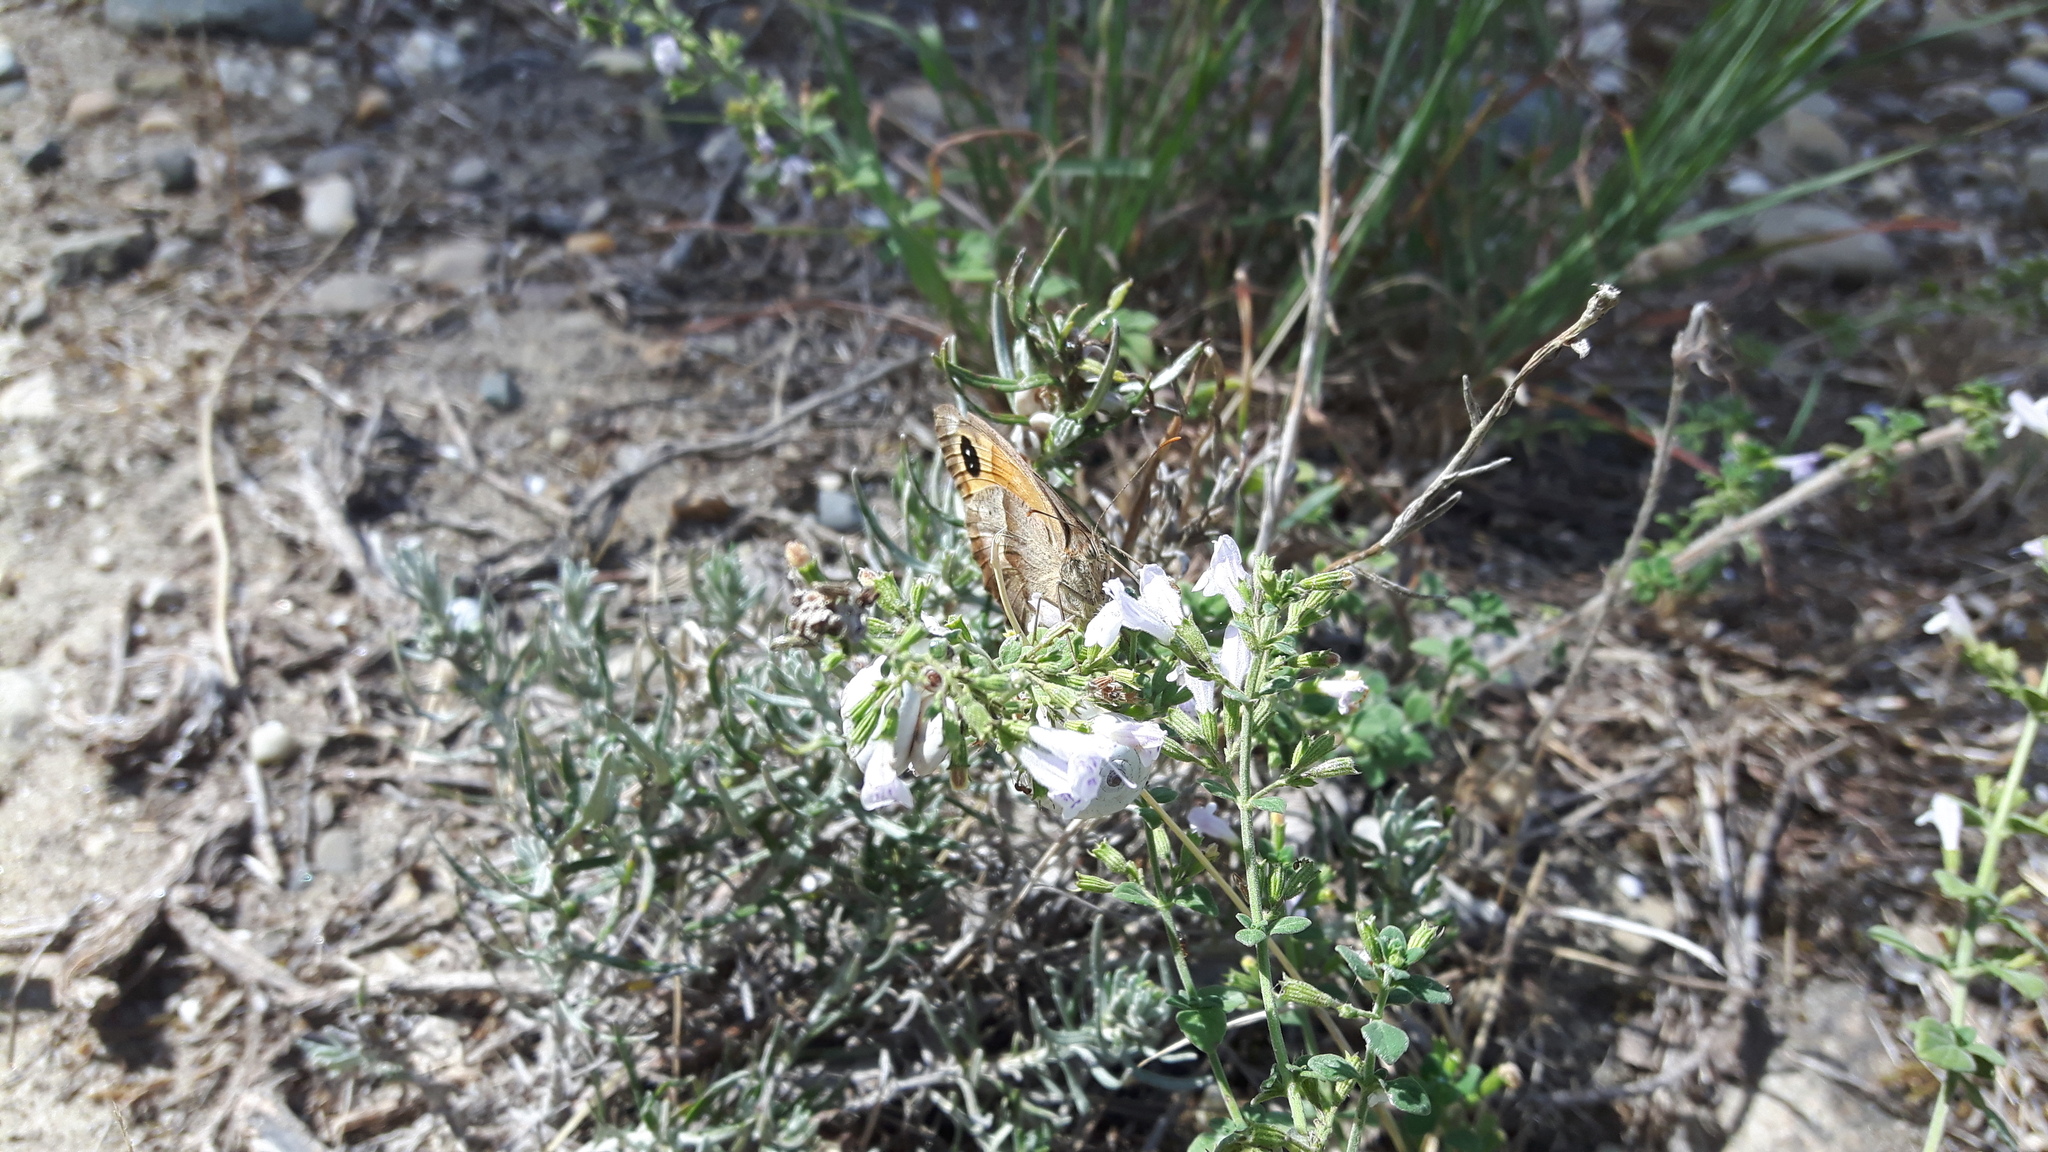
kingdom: Animalia
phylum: Arthropoda
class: Insecta
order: Lepidoptera
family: Nymphalidae
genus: Maniola
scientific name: Maniola jurtina
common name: Meadow brown
